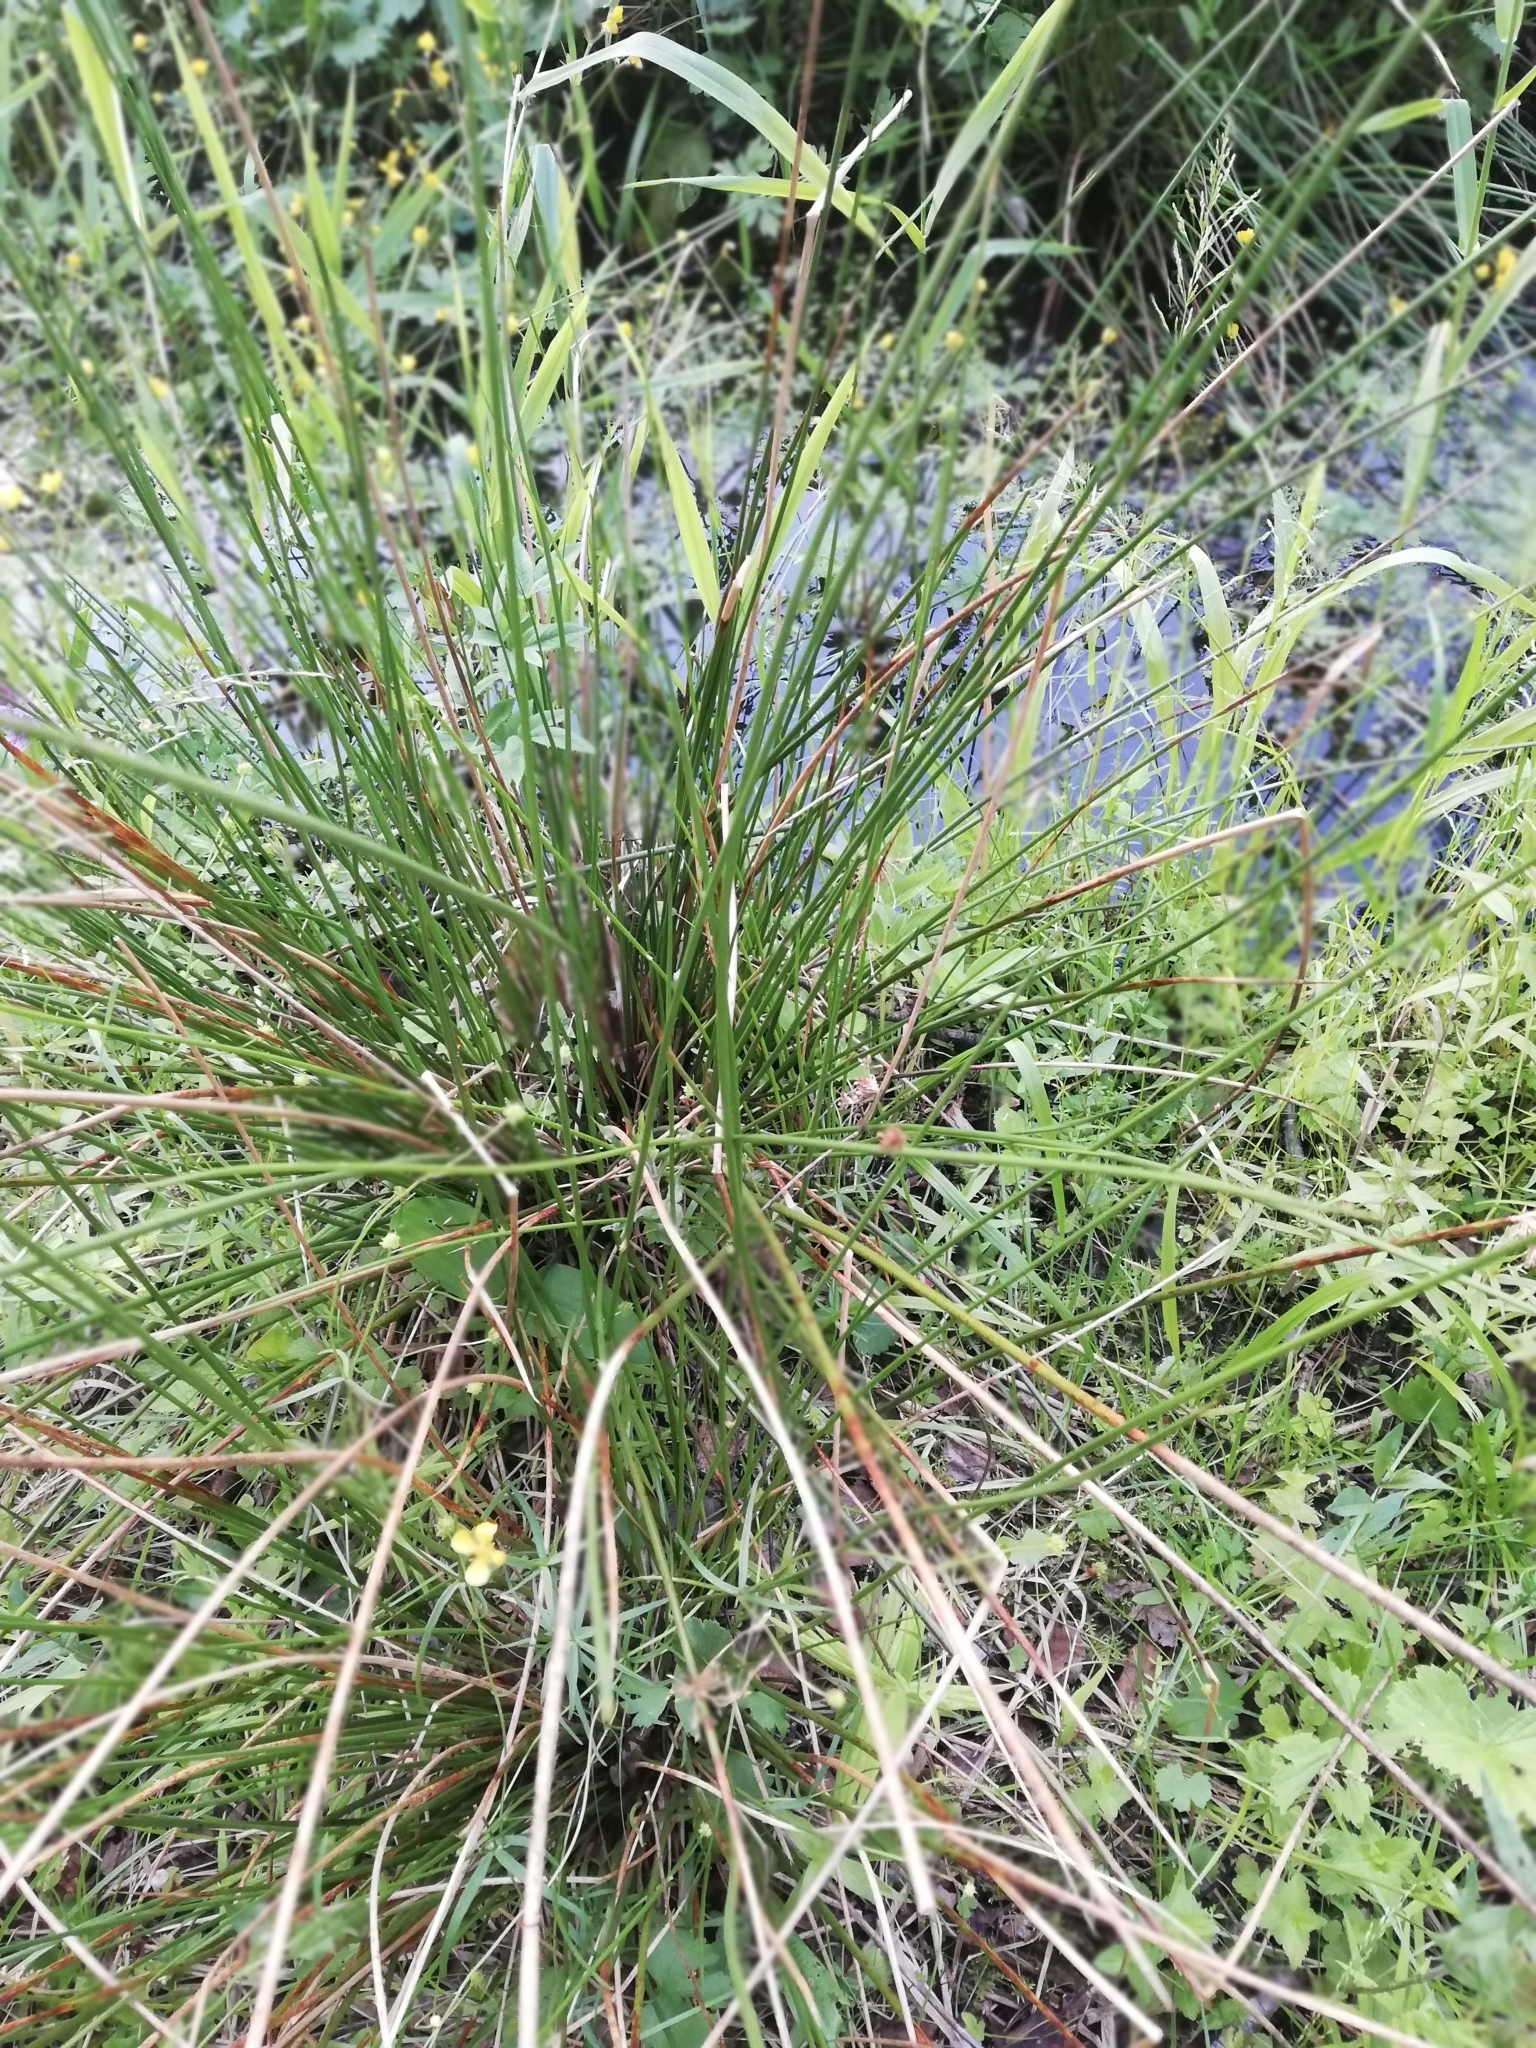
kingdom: Plantae
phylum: Tracheophyta
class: Liliopsida
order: Poales
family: Juncaceae
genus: Juncus
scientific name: Juncus effusus
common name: Soft rush
